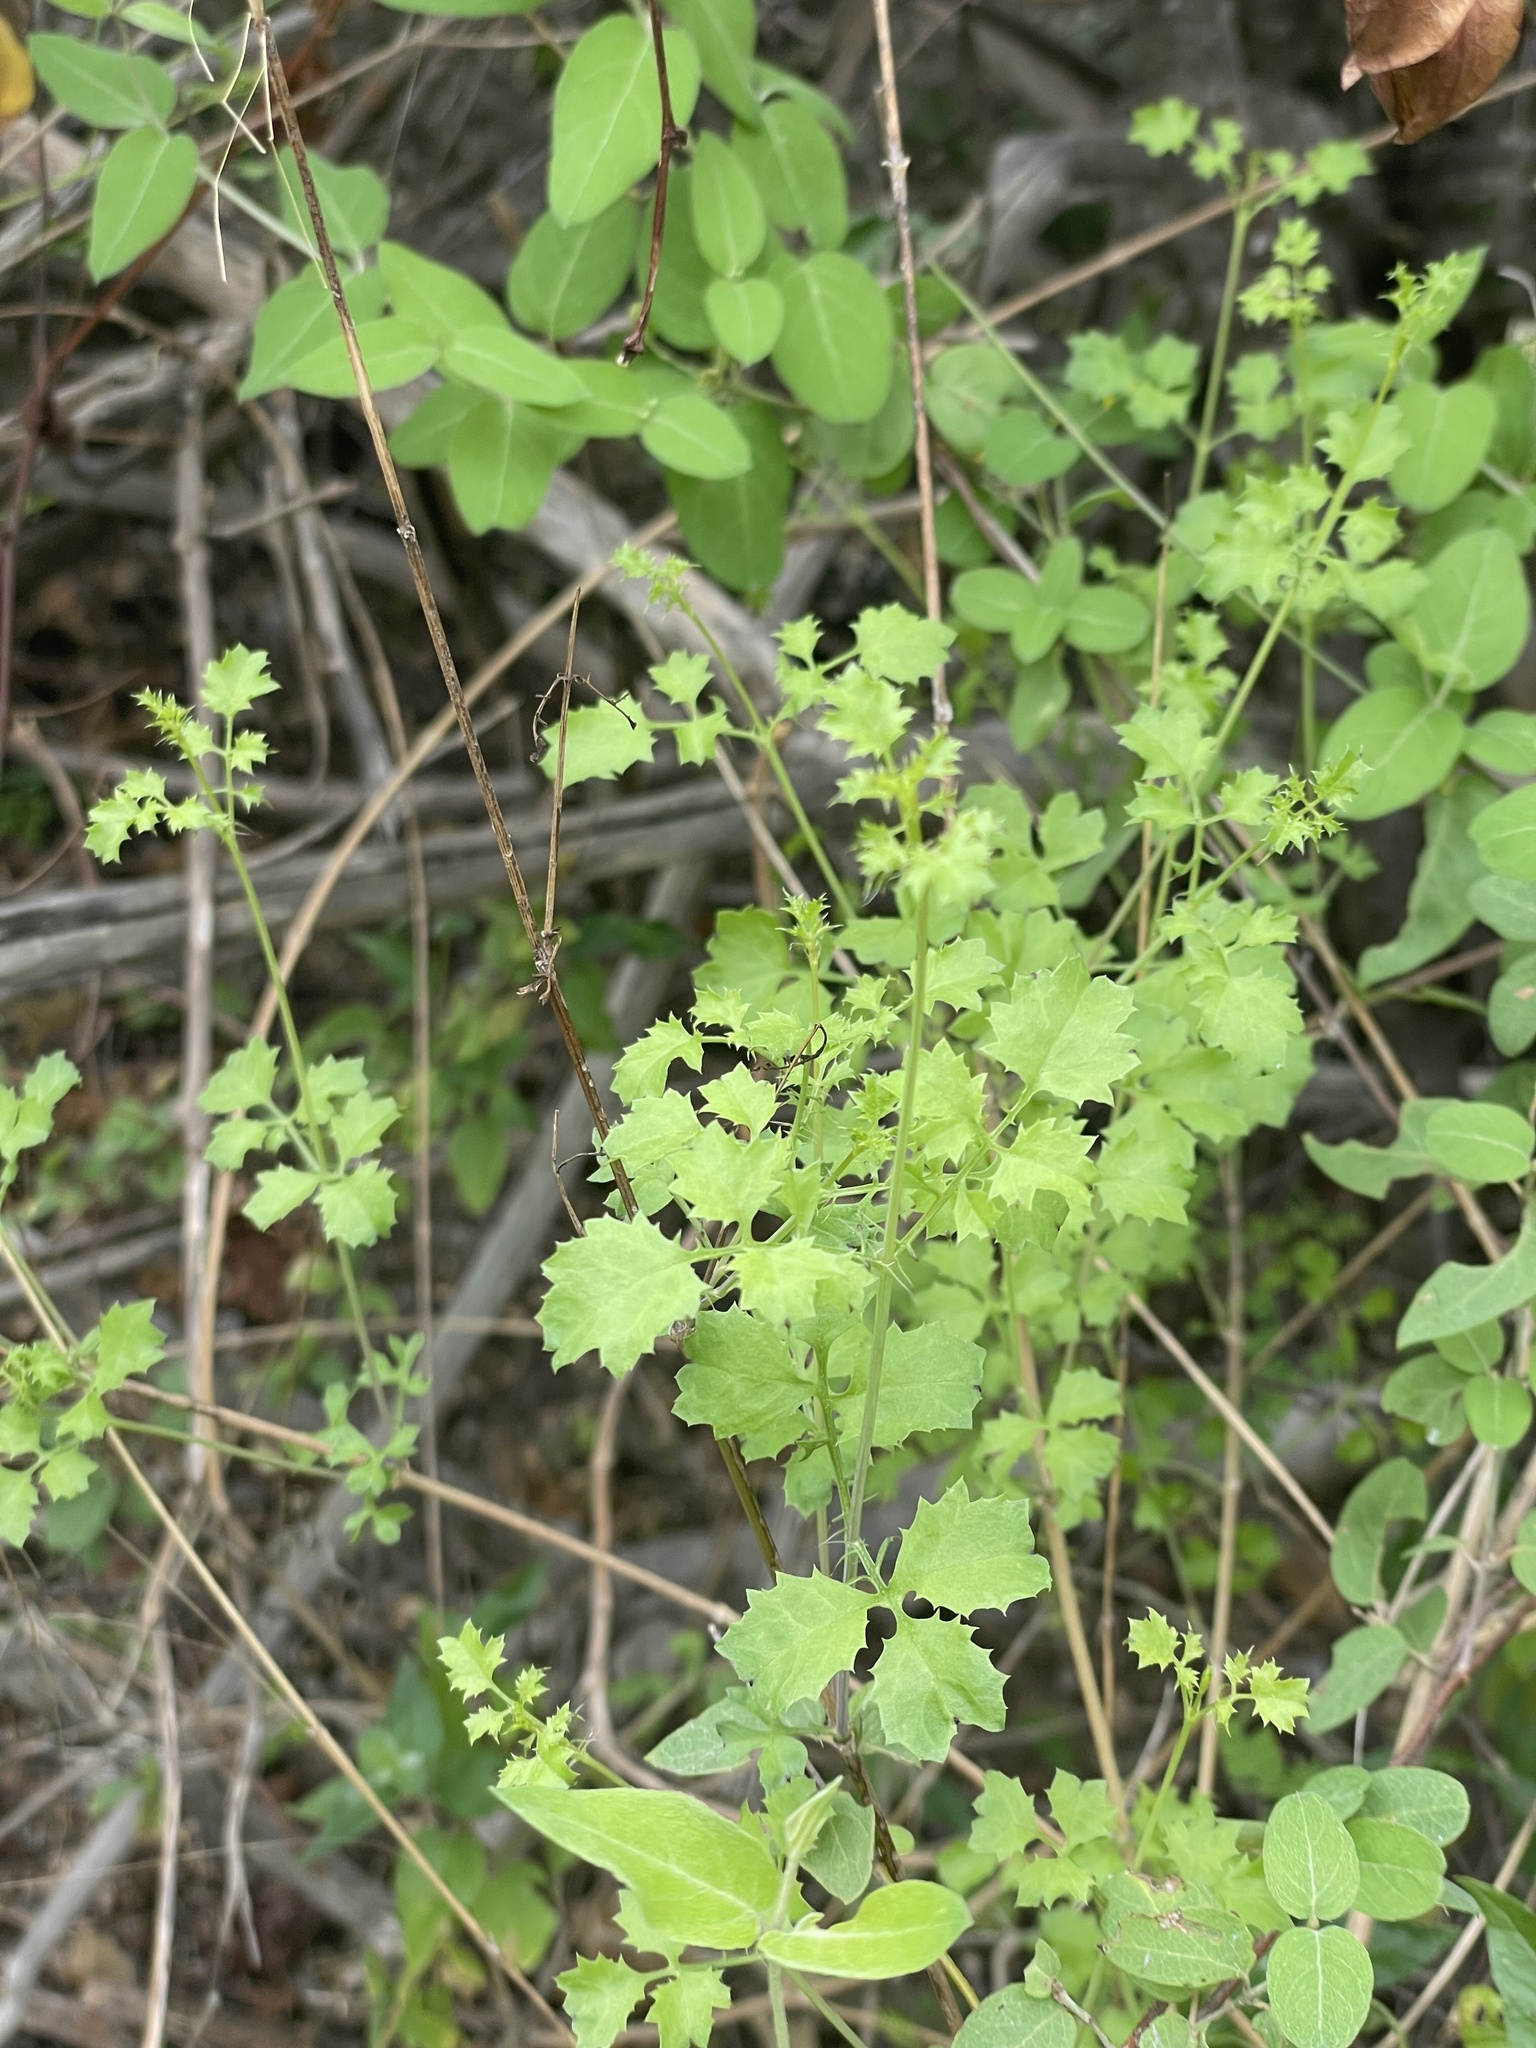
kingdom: Plantae
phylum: Tracheophyta
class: Magnoliopsida
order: Asterales
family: Asteraceae
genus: Adenophyllum
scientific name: Adenophyllum speciosum
